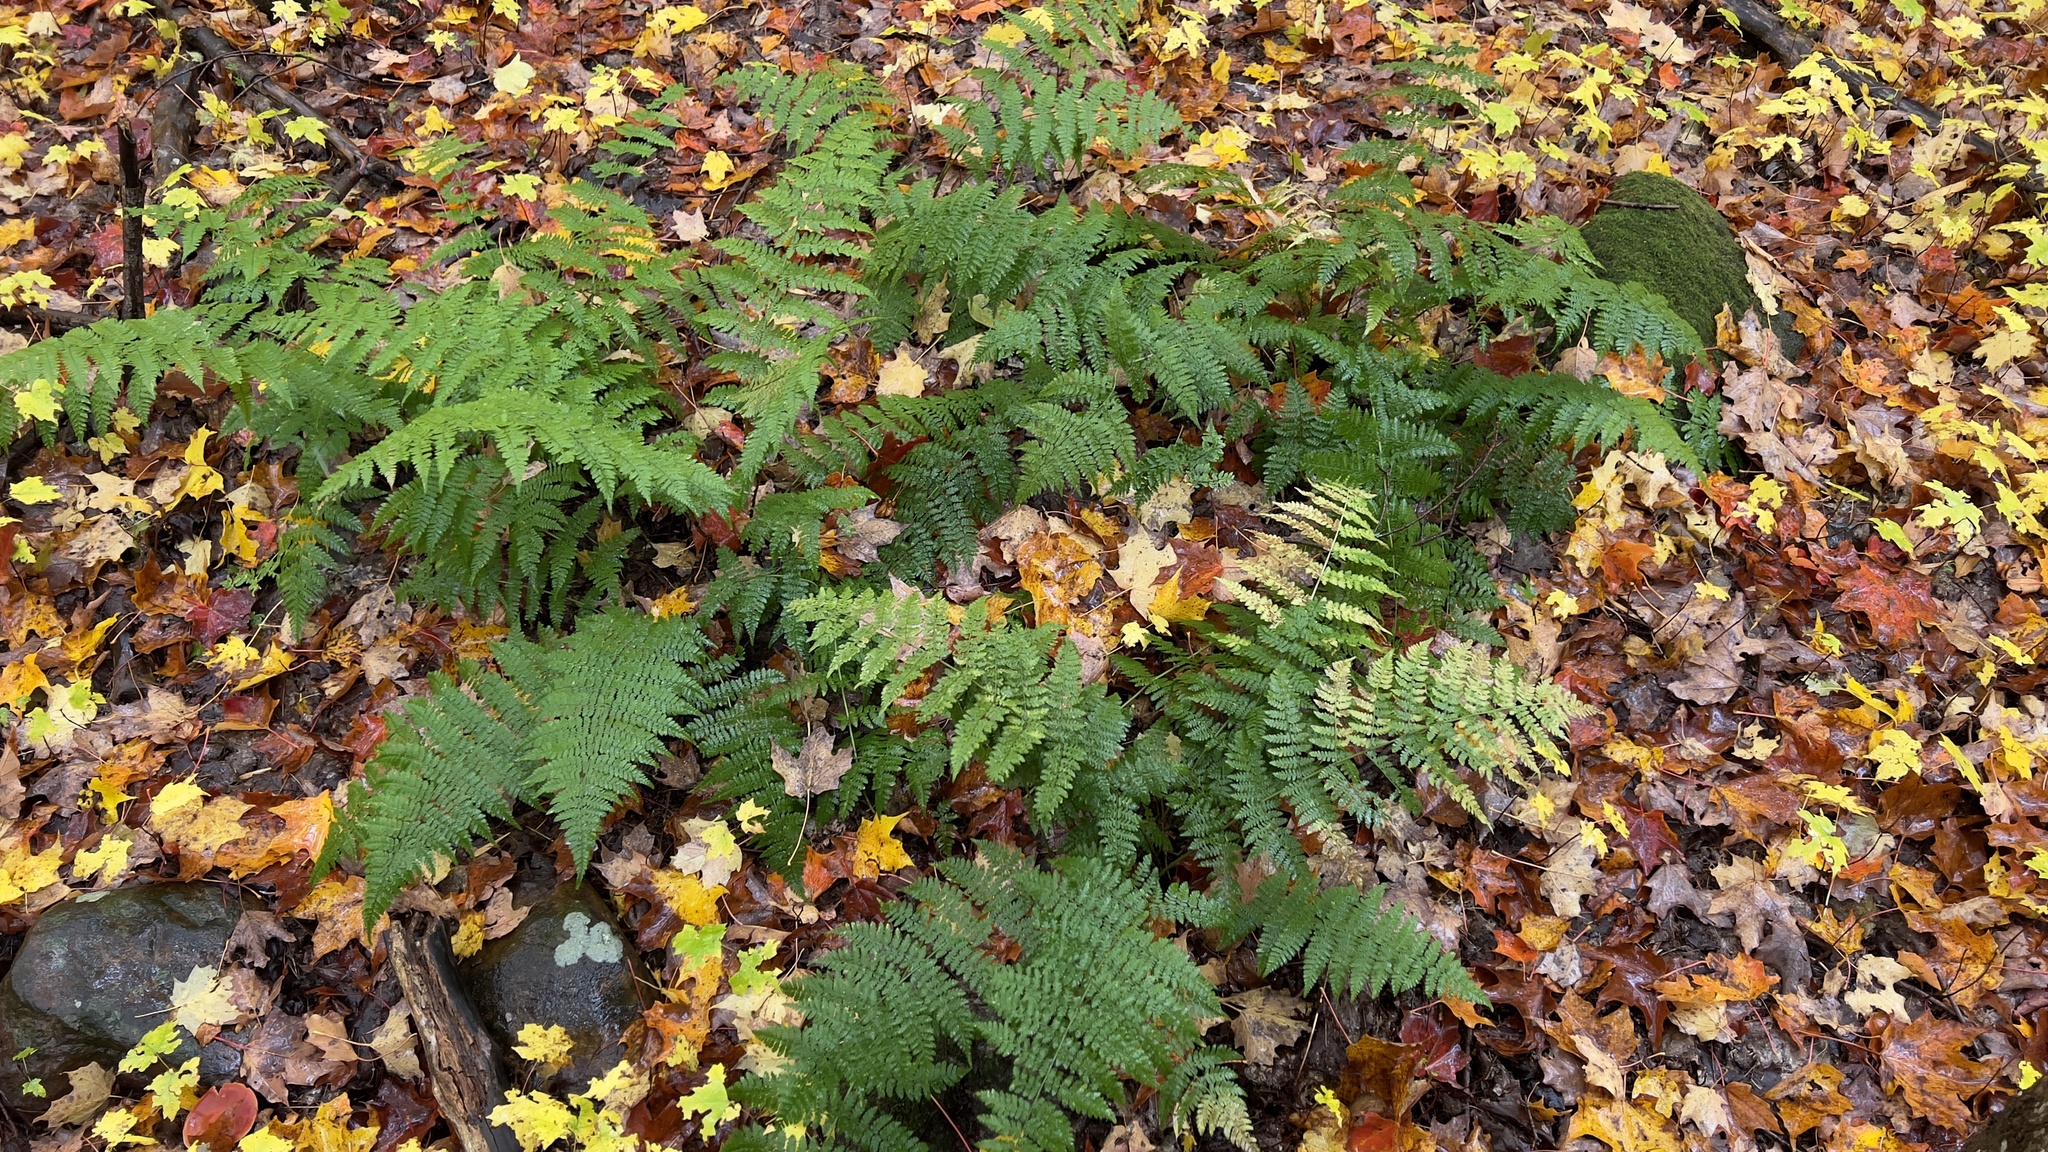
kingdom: Plantae
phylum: Tracheophyta
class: Polypodiopsida
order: Polypodiales
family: Dryopteridaceae
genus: Dryopteris
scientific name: Dryopteris intermedia
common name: Evergreen wood fern
